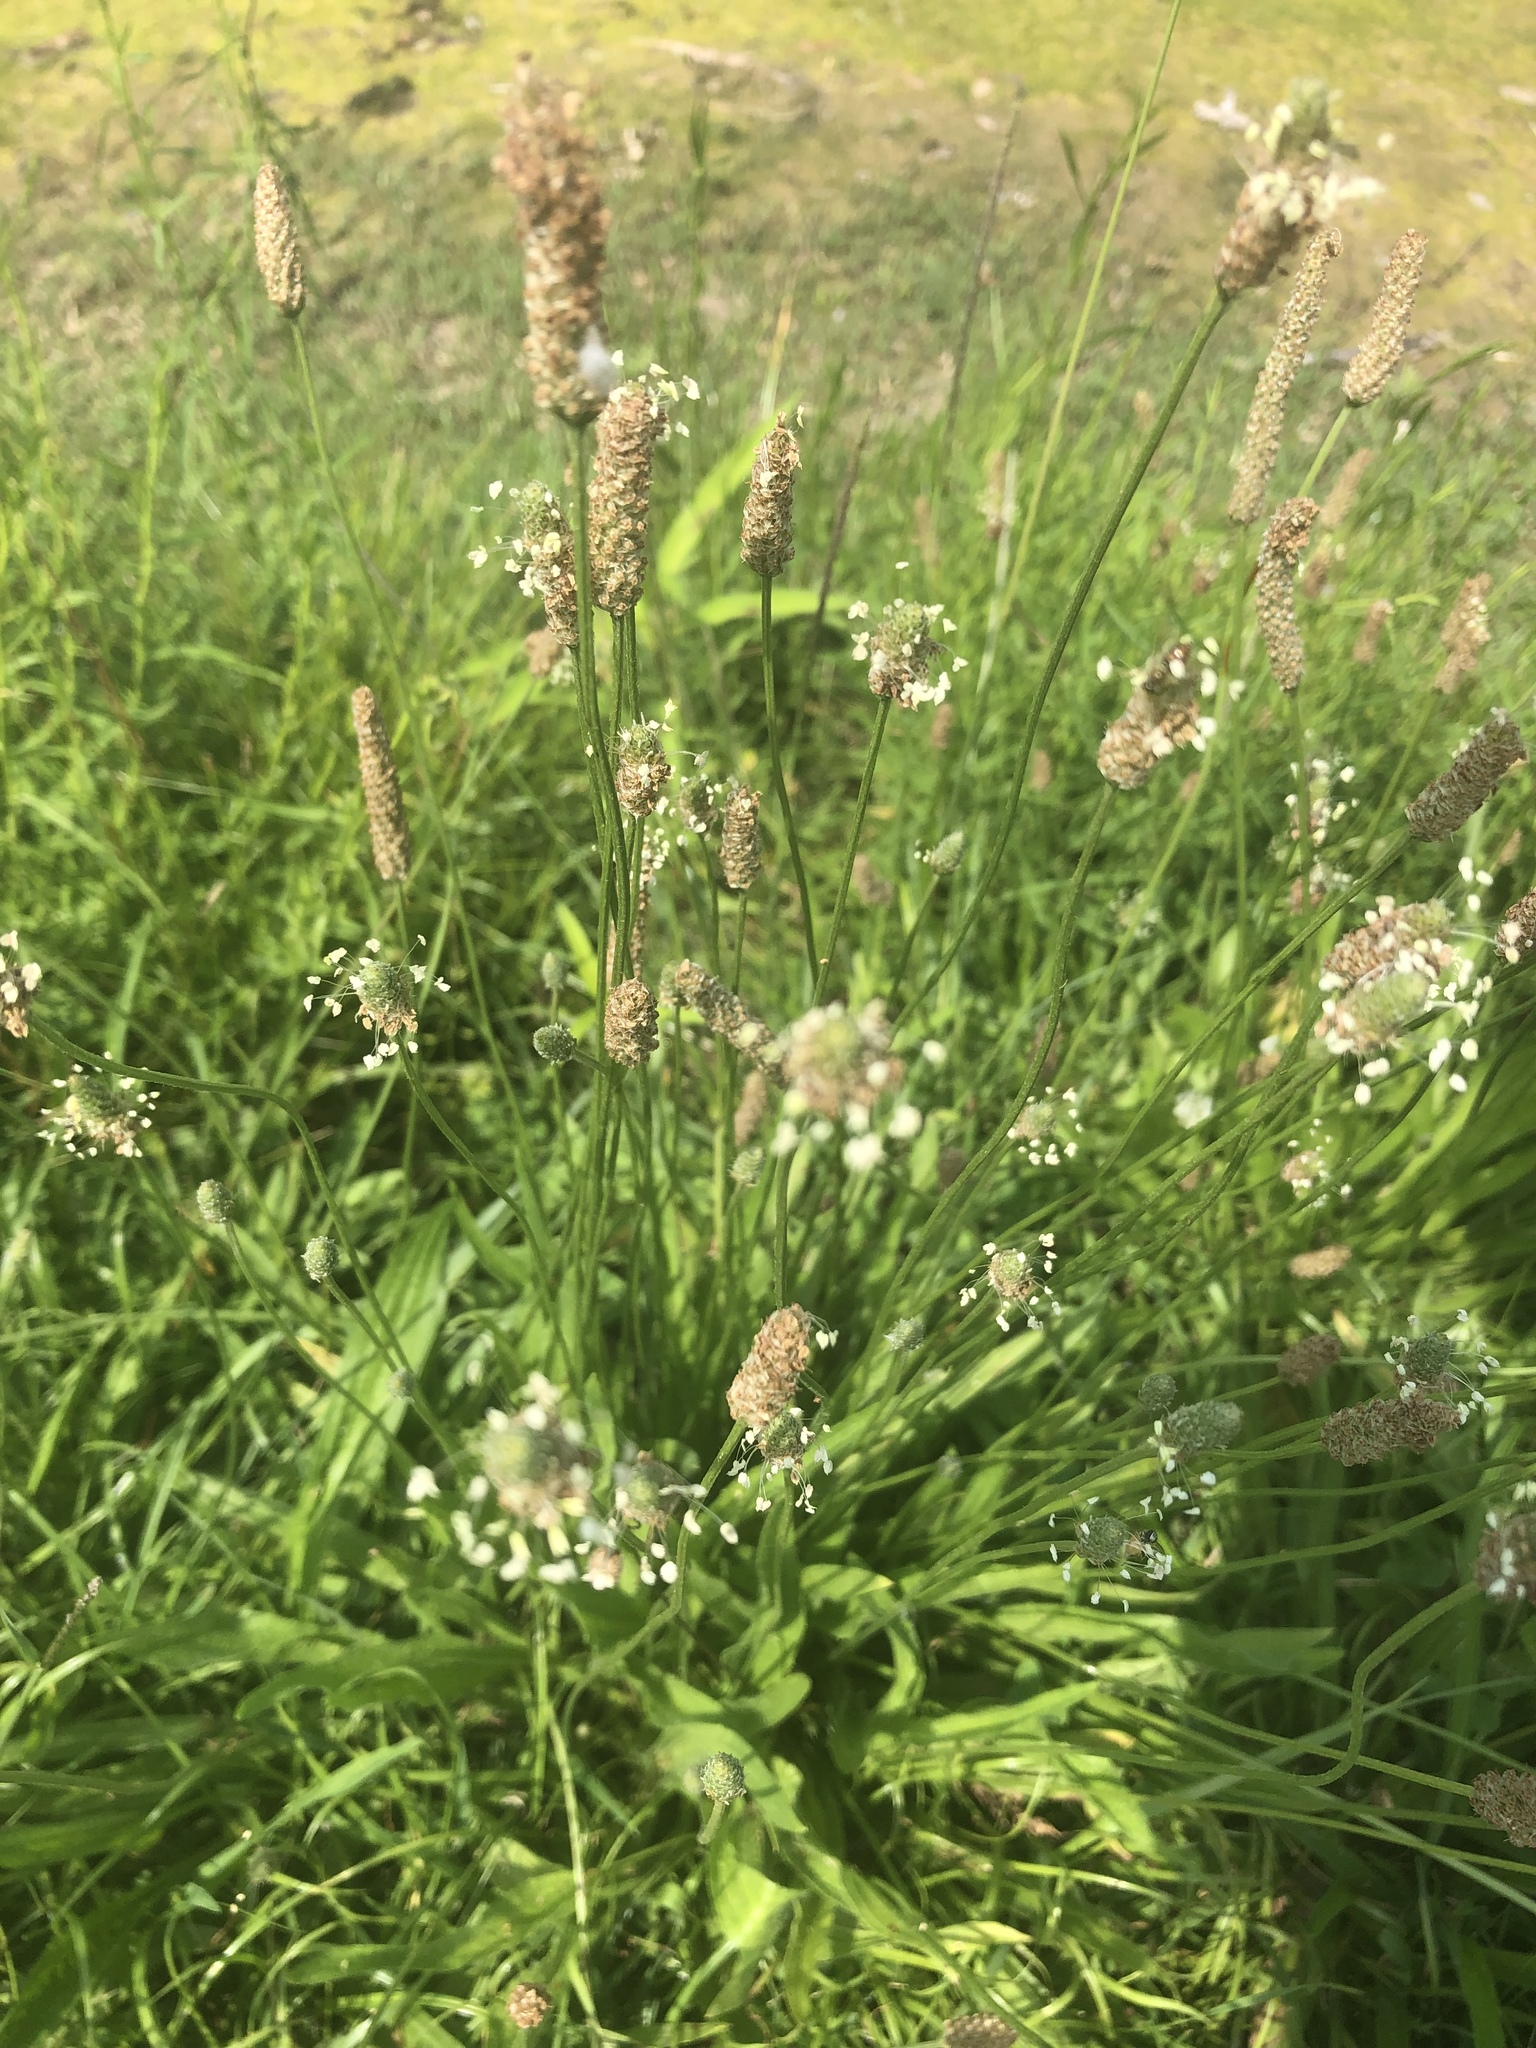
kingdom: Plantae
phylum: Tracheophyta
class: Magnoliopsida
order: Lamiales
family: Plantaginaceae
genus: Plantago
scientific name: Plantago lanceolata
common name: Ribwort plantain
